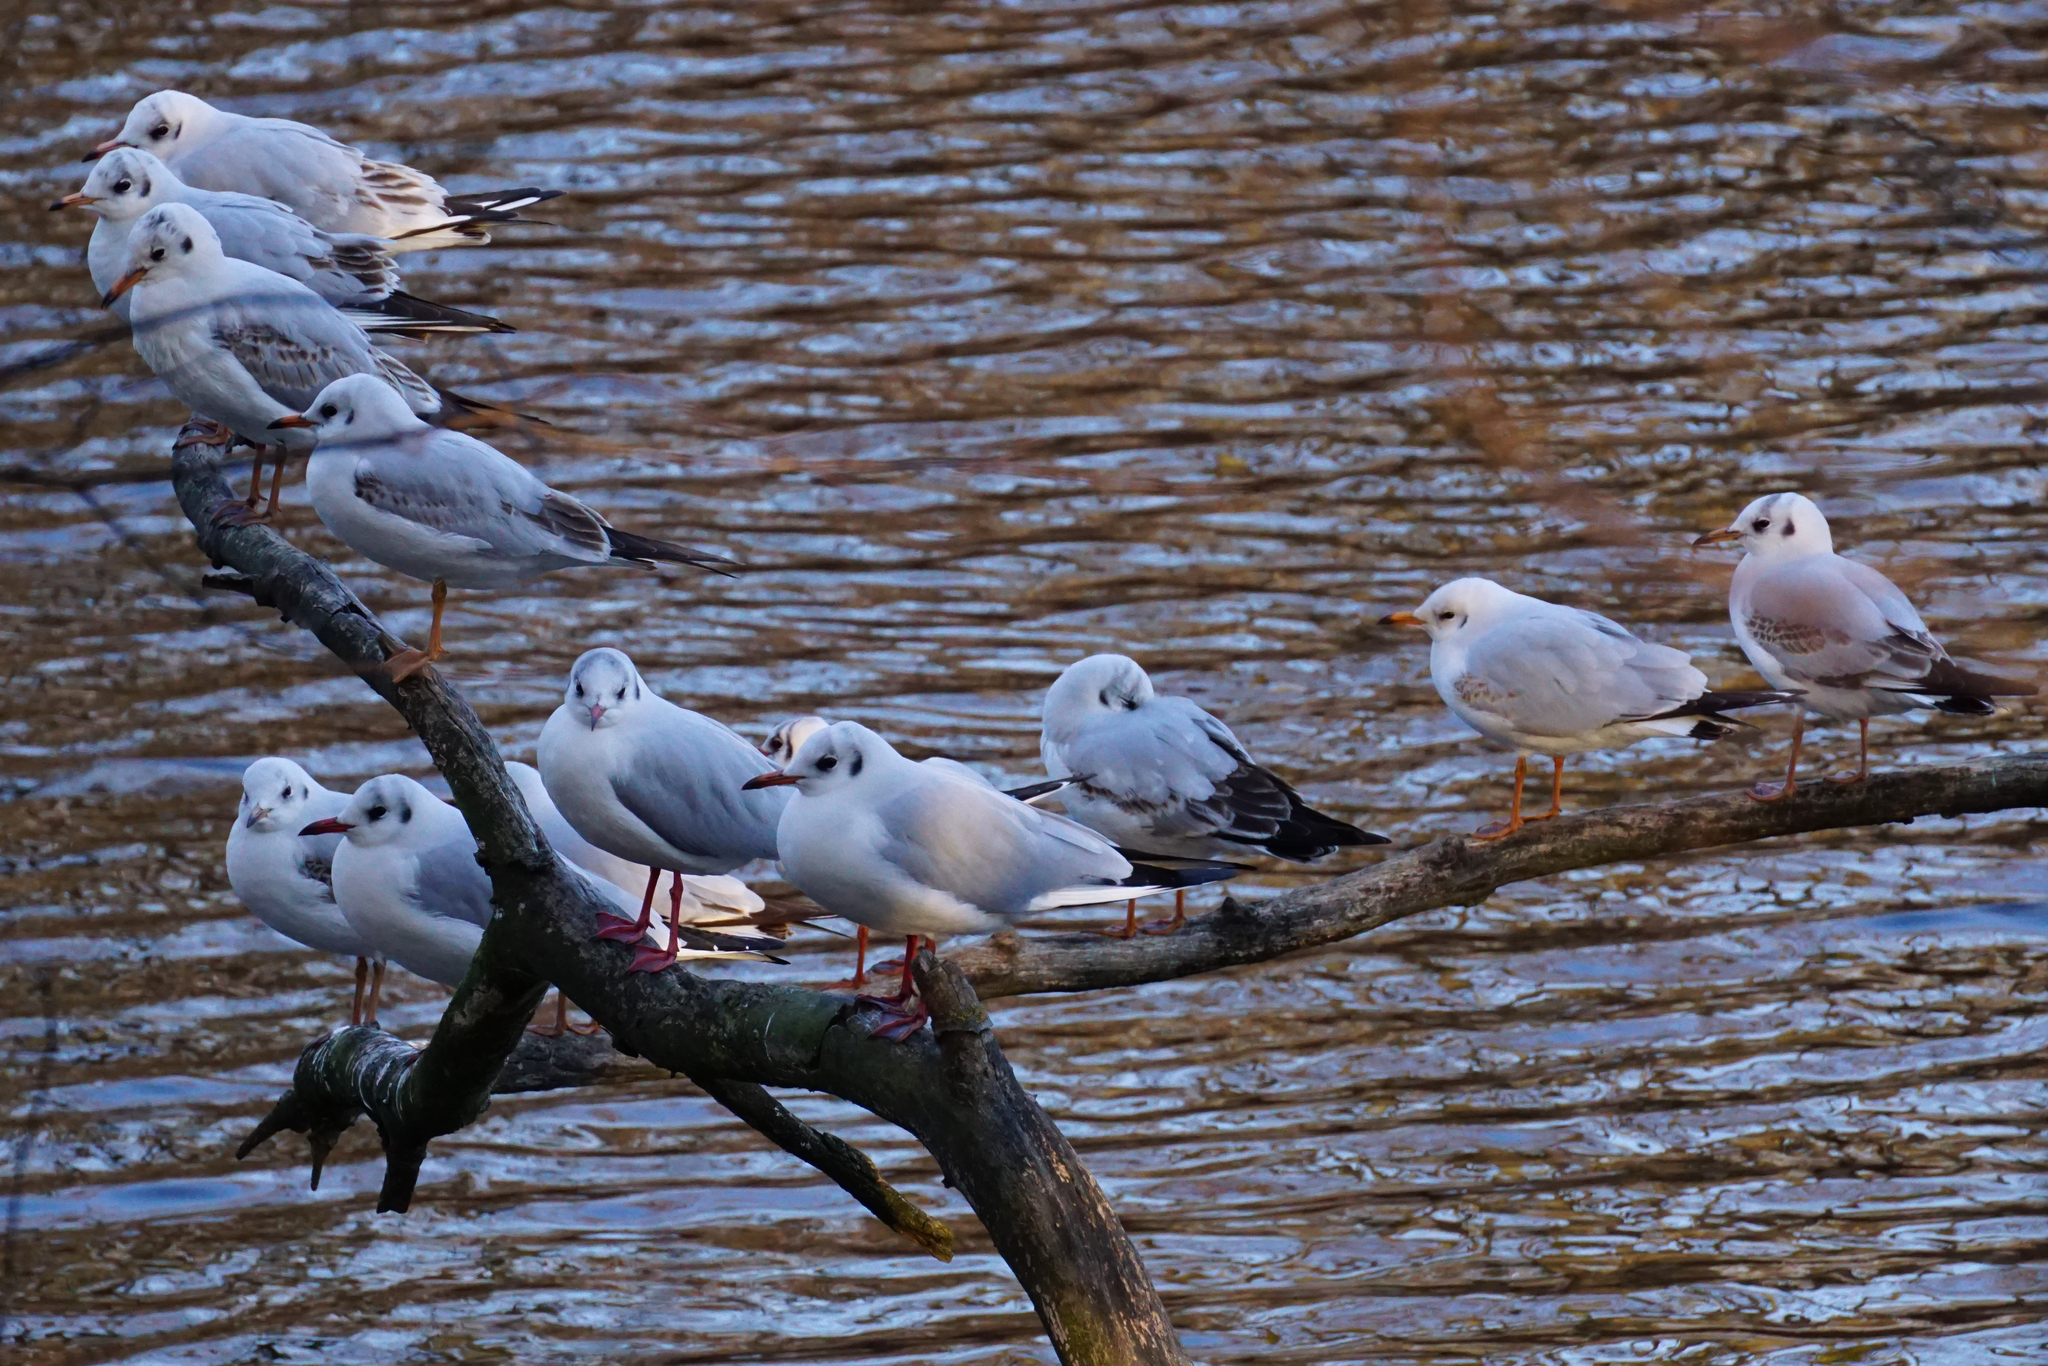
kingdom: Animalia
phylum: Chordata
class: Aves
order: Charadriiformes
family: Laridae
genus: Chroicocephalus
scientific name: Chroicocephalus ridibundus
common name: Black-headed gull
